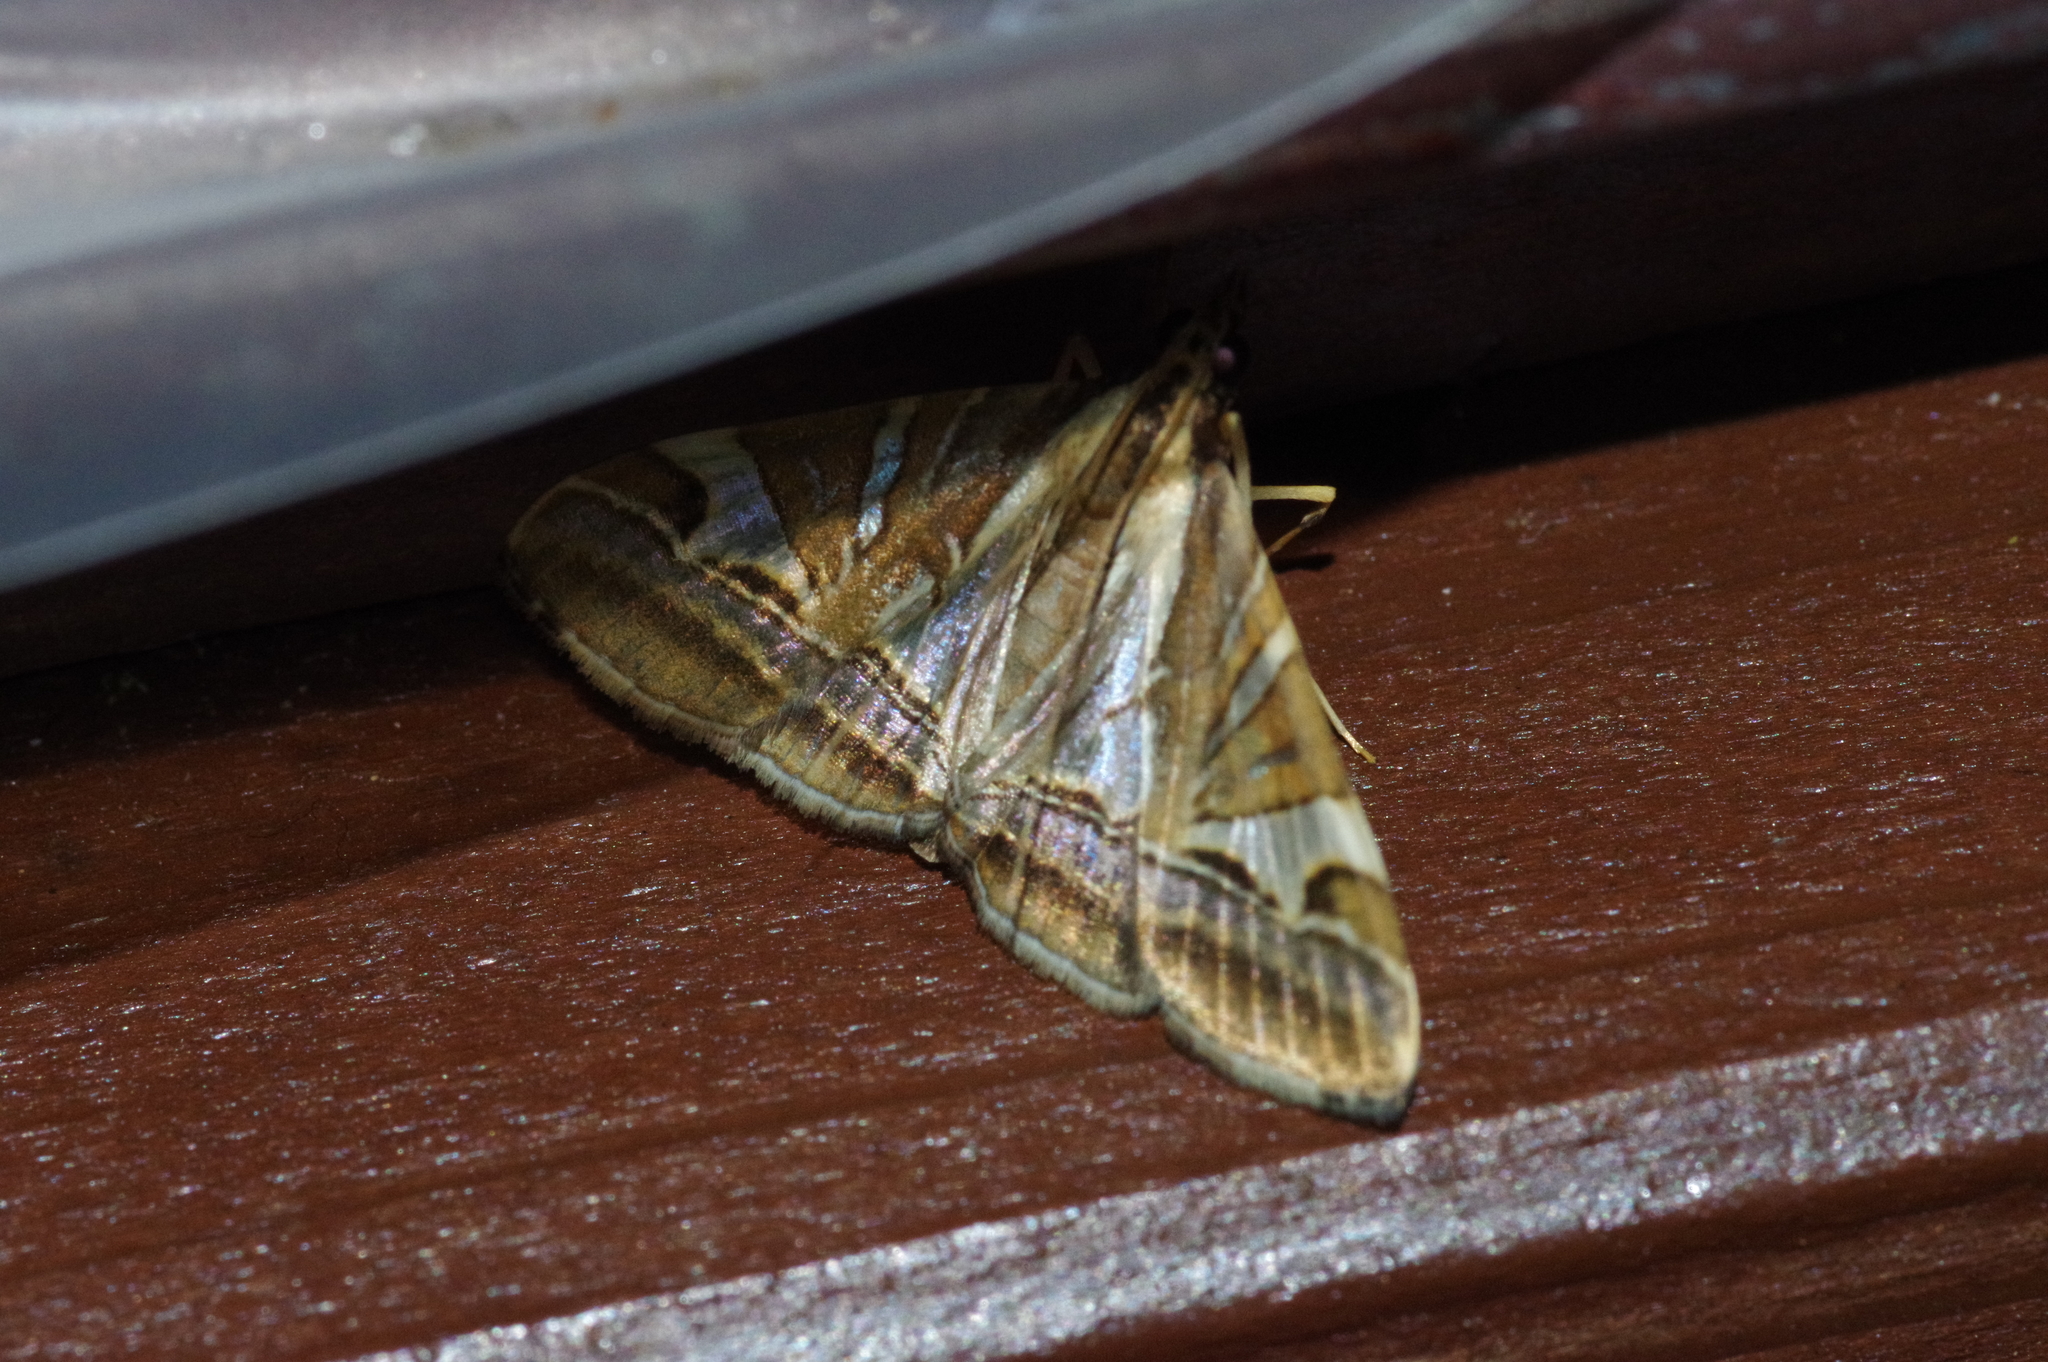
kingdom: Animalia
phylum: Arthropoda
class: Insecta
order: Lepidoptera
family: Crambidae
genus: Agrioglypta
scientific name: Agrioglypta itysalis
